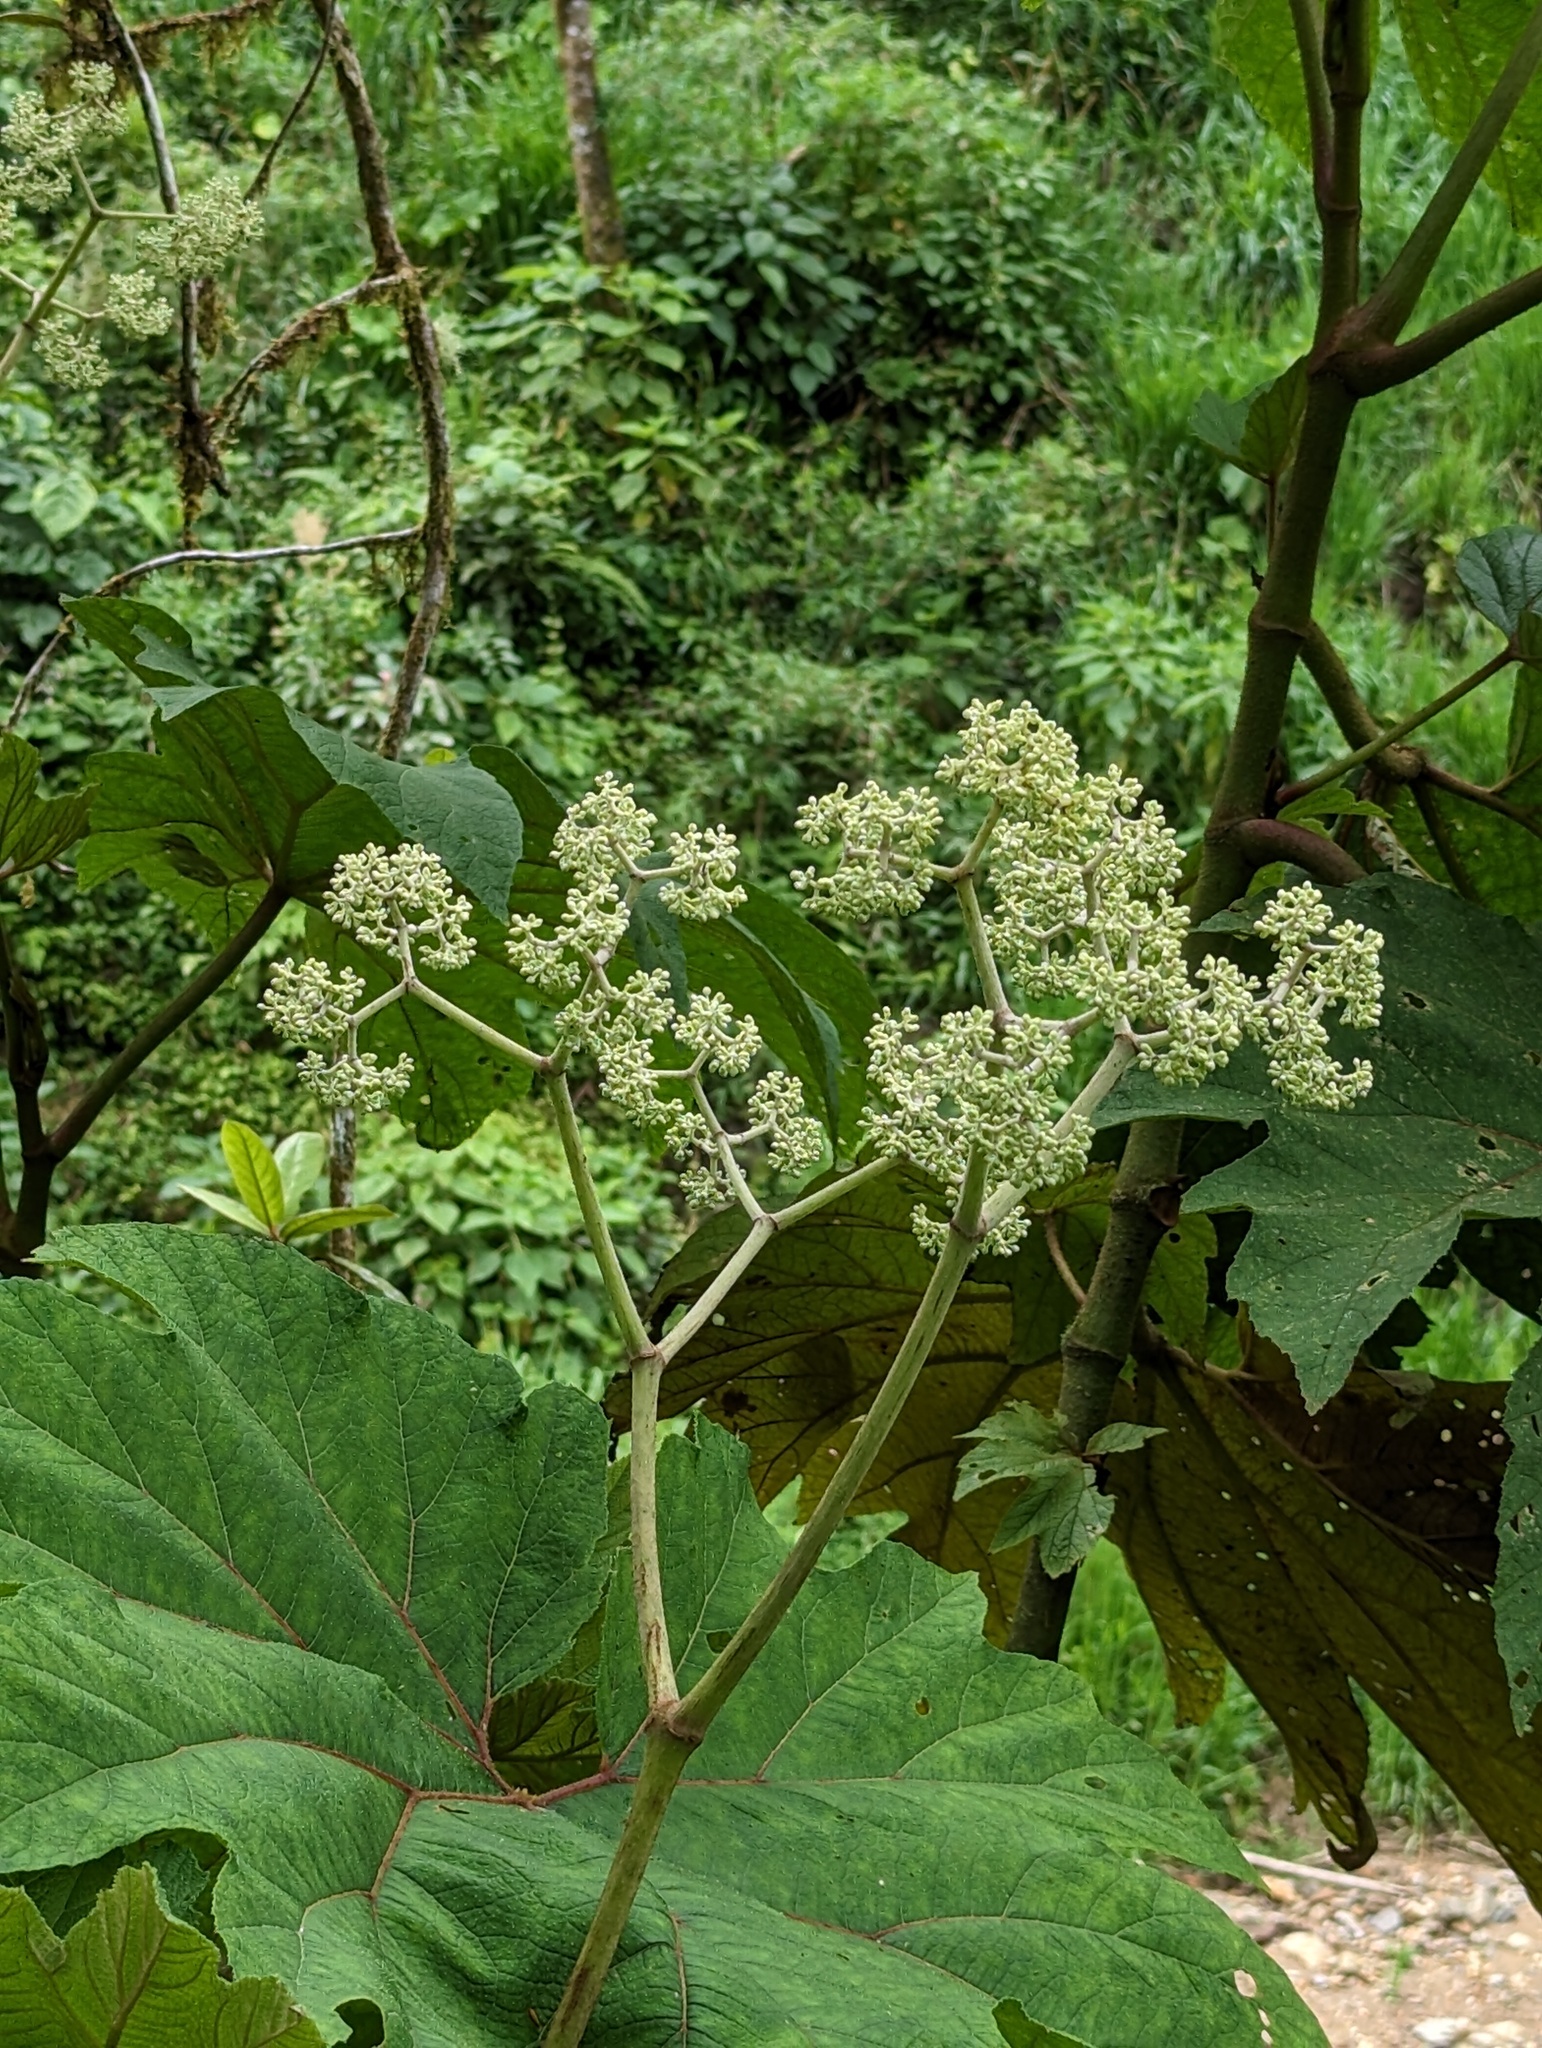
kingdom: Plantae
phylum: Tracheophyta
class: Magnoliopsida
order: Cucurbitales
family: Begoniaceae
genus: Begonia
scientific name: Begonia parviflora
